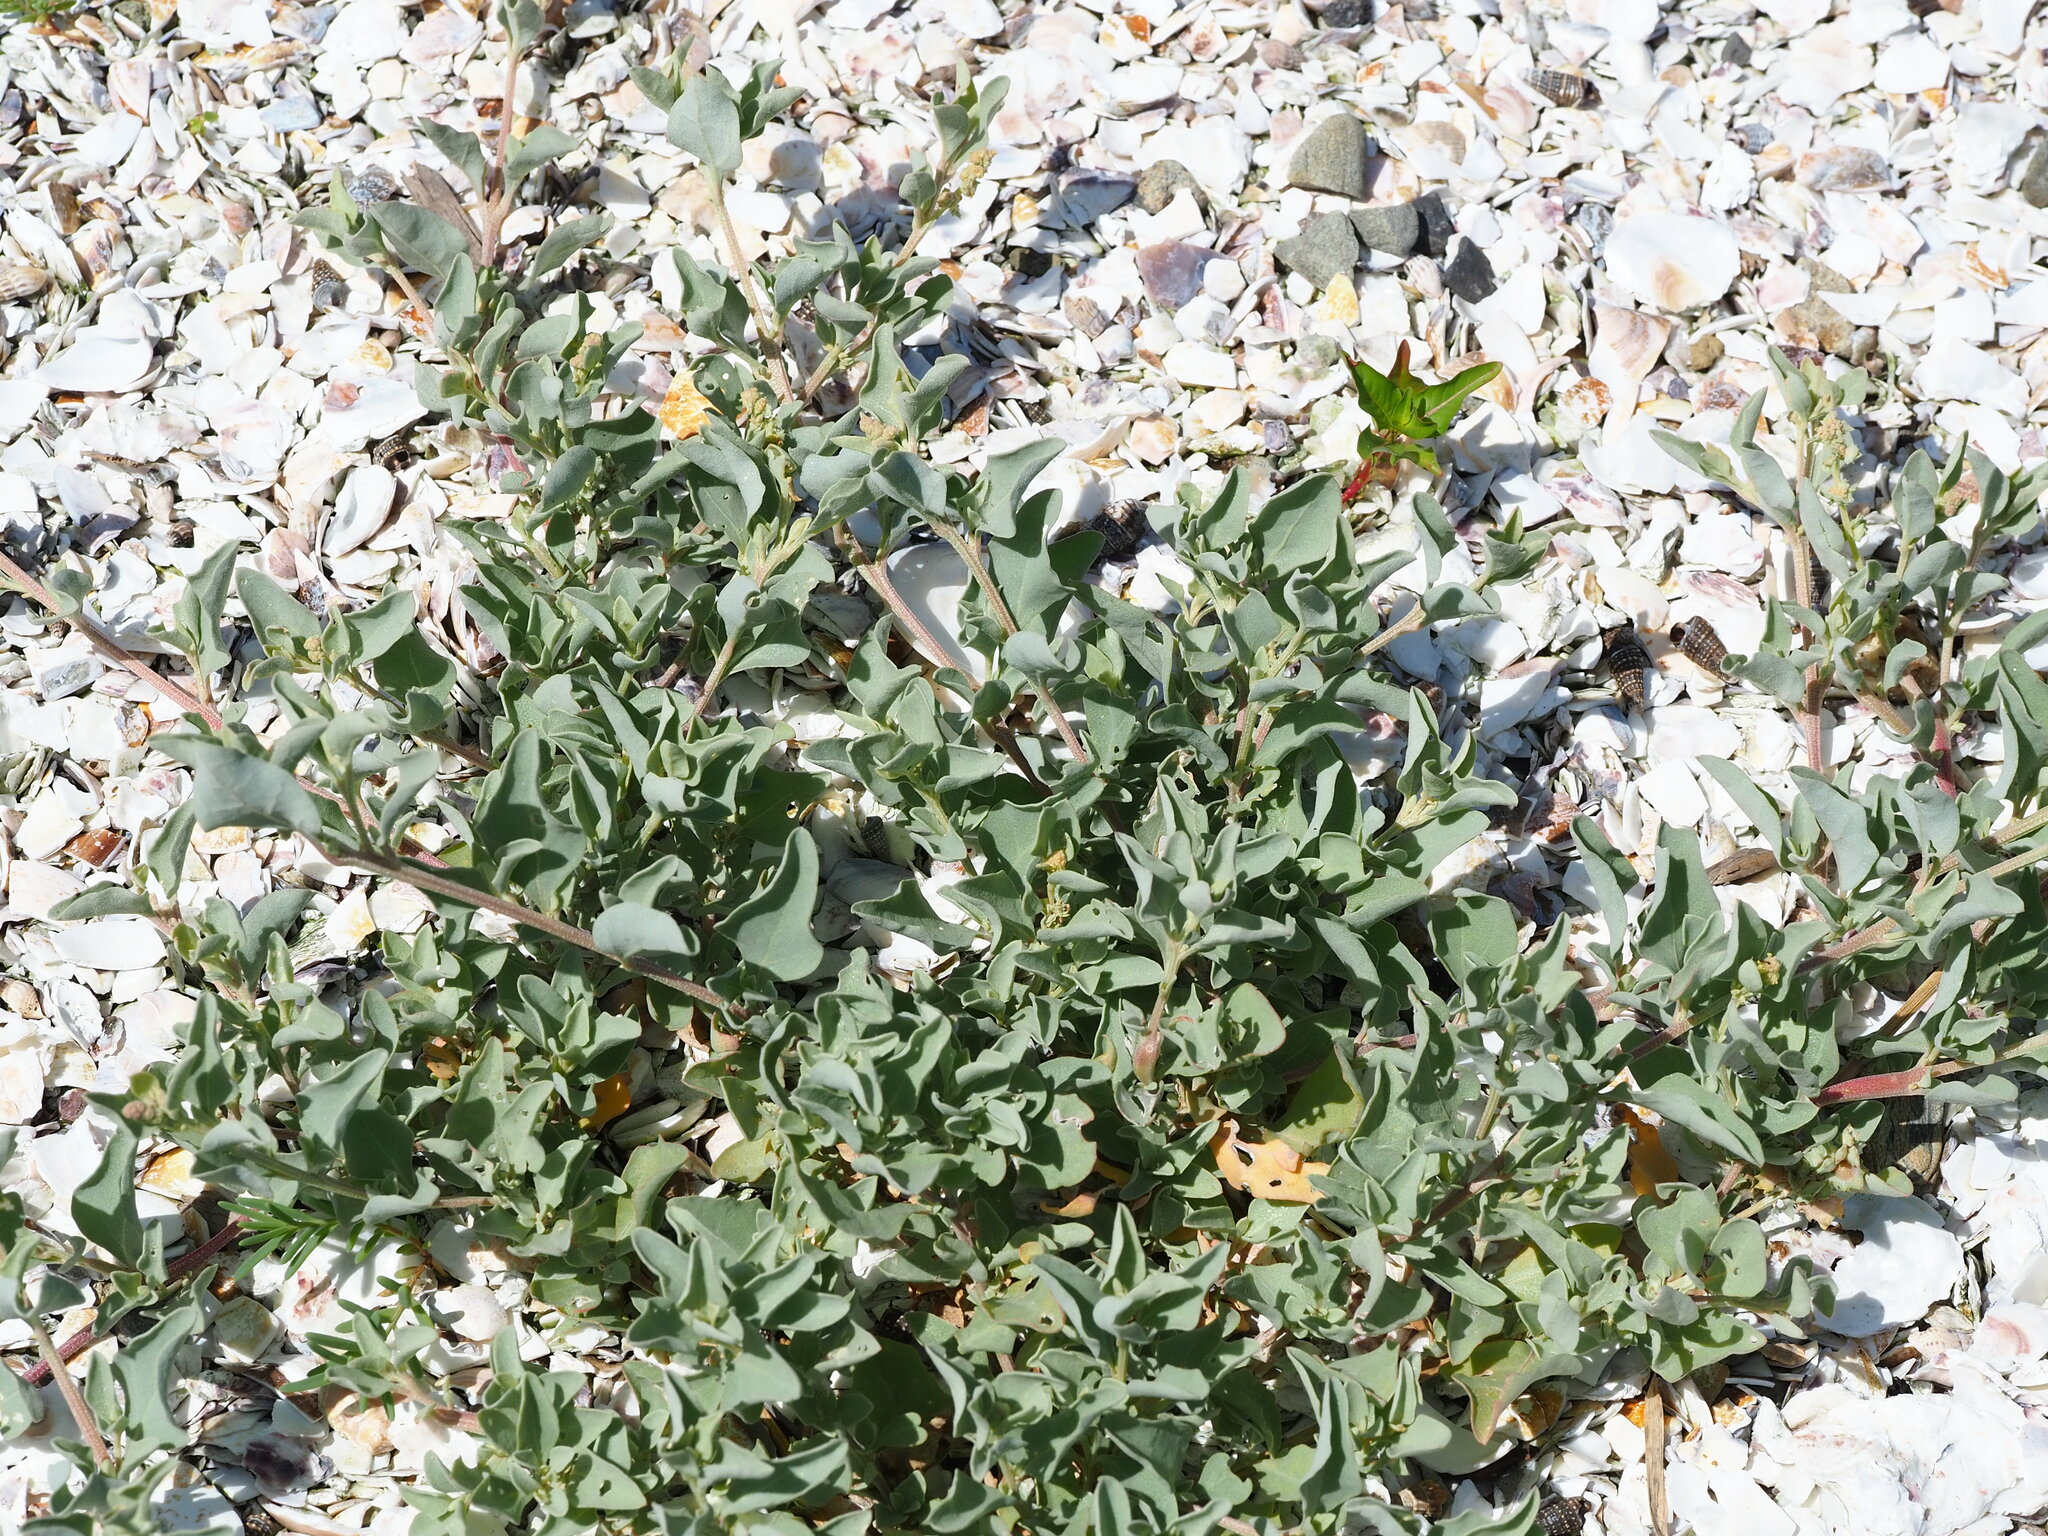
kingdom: Plantae
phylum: Tracheophyta
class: Magnoliopsida
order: Caryophyllales
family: Amaranthaceae
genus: Atriplex
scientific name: Atriplex maximowicziana
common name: Maximowicz's saltbush
